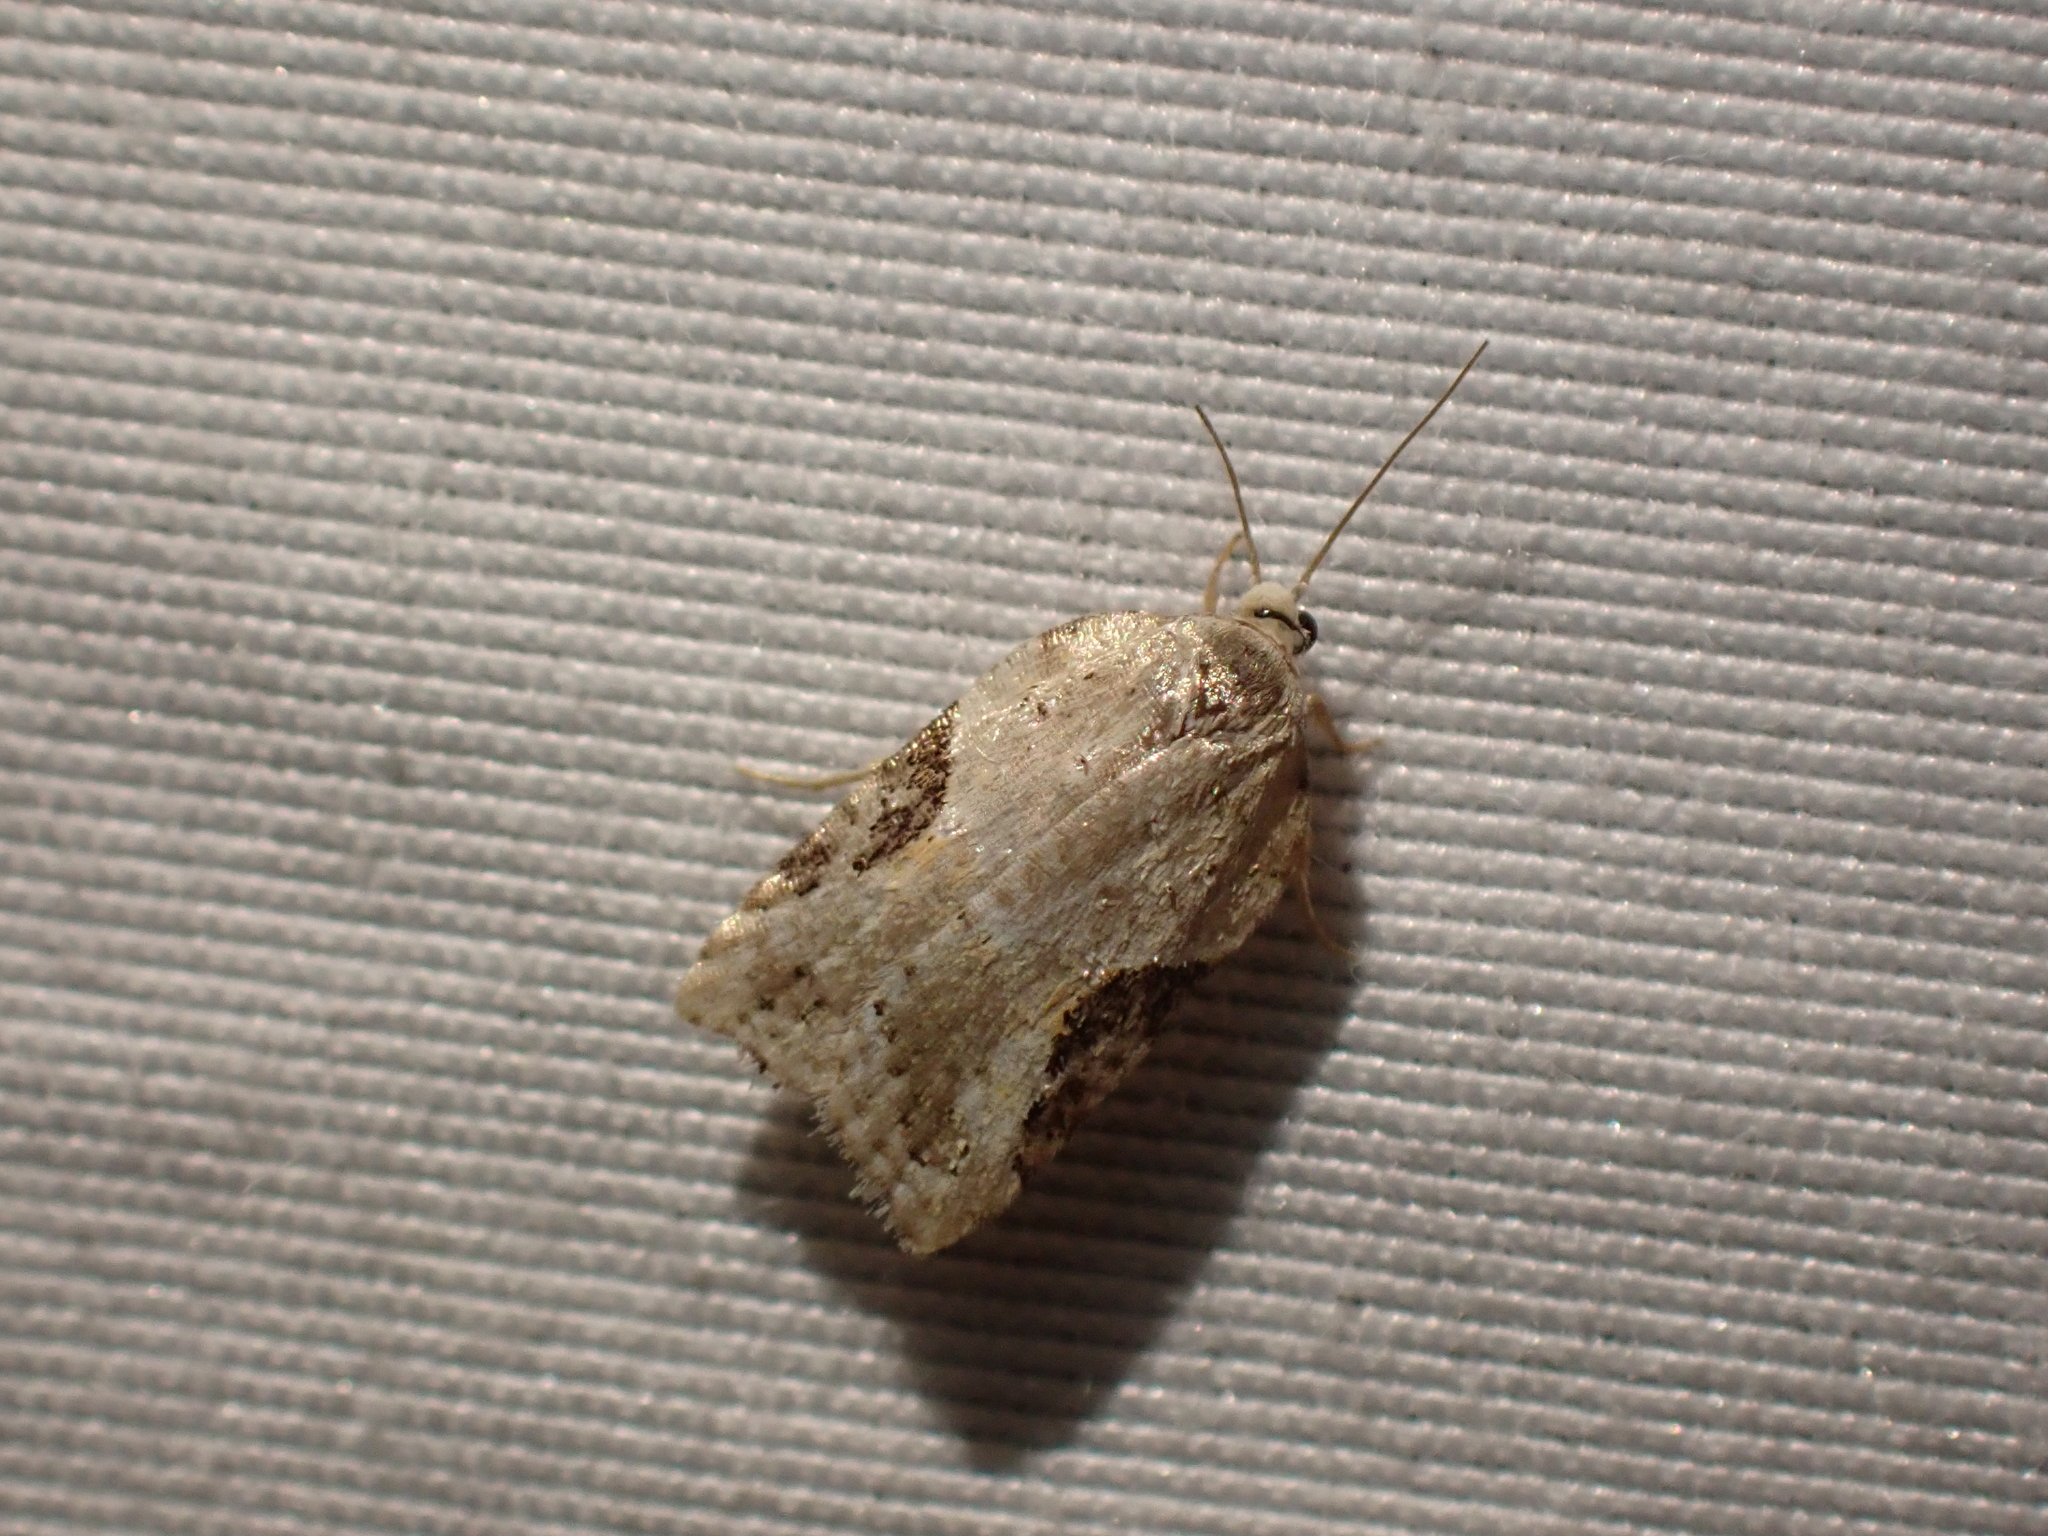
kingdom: Animalia
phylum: Arthropoda
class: Insecta
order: Lepidoptera
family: Tortricidae
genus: Acleris
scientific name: Acleris cornana
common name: Dogwood leafroller
